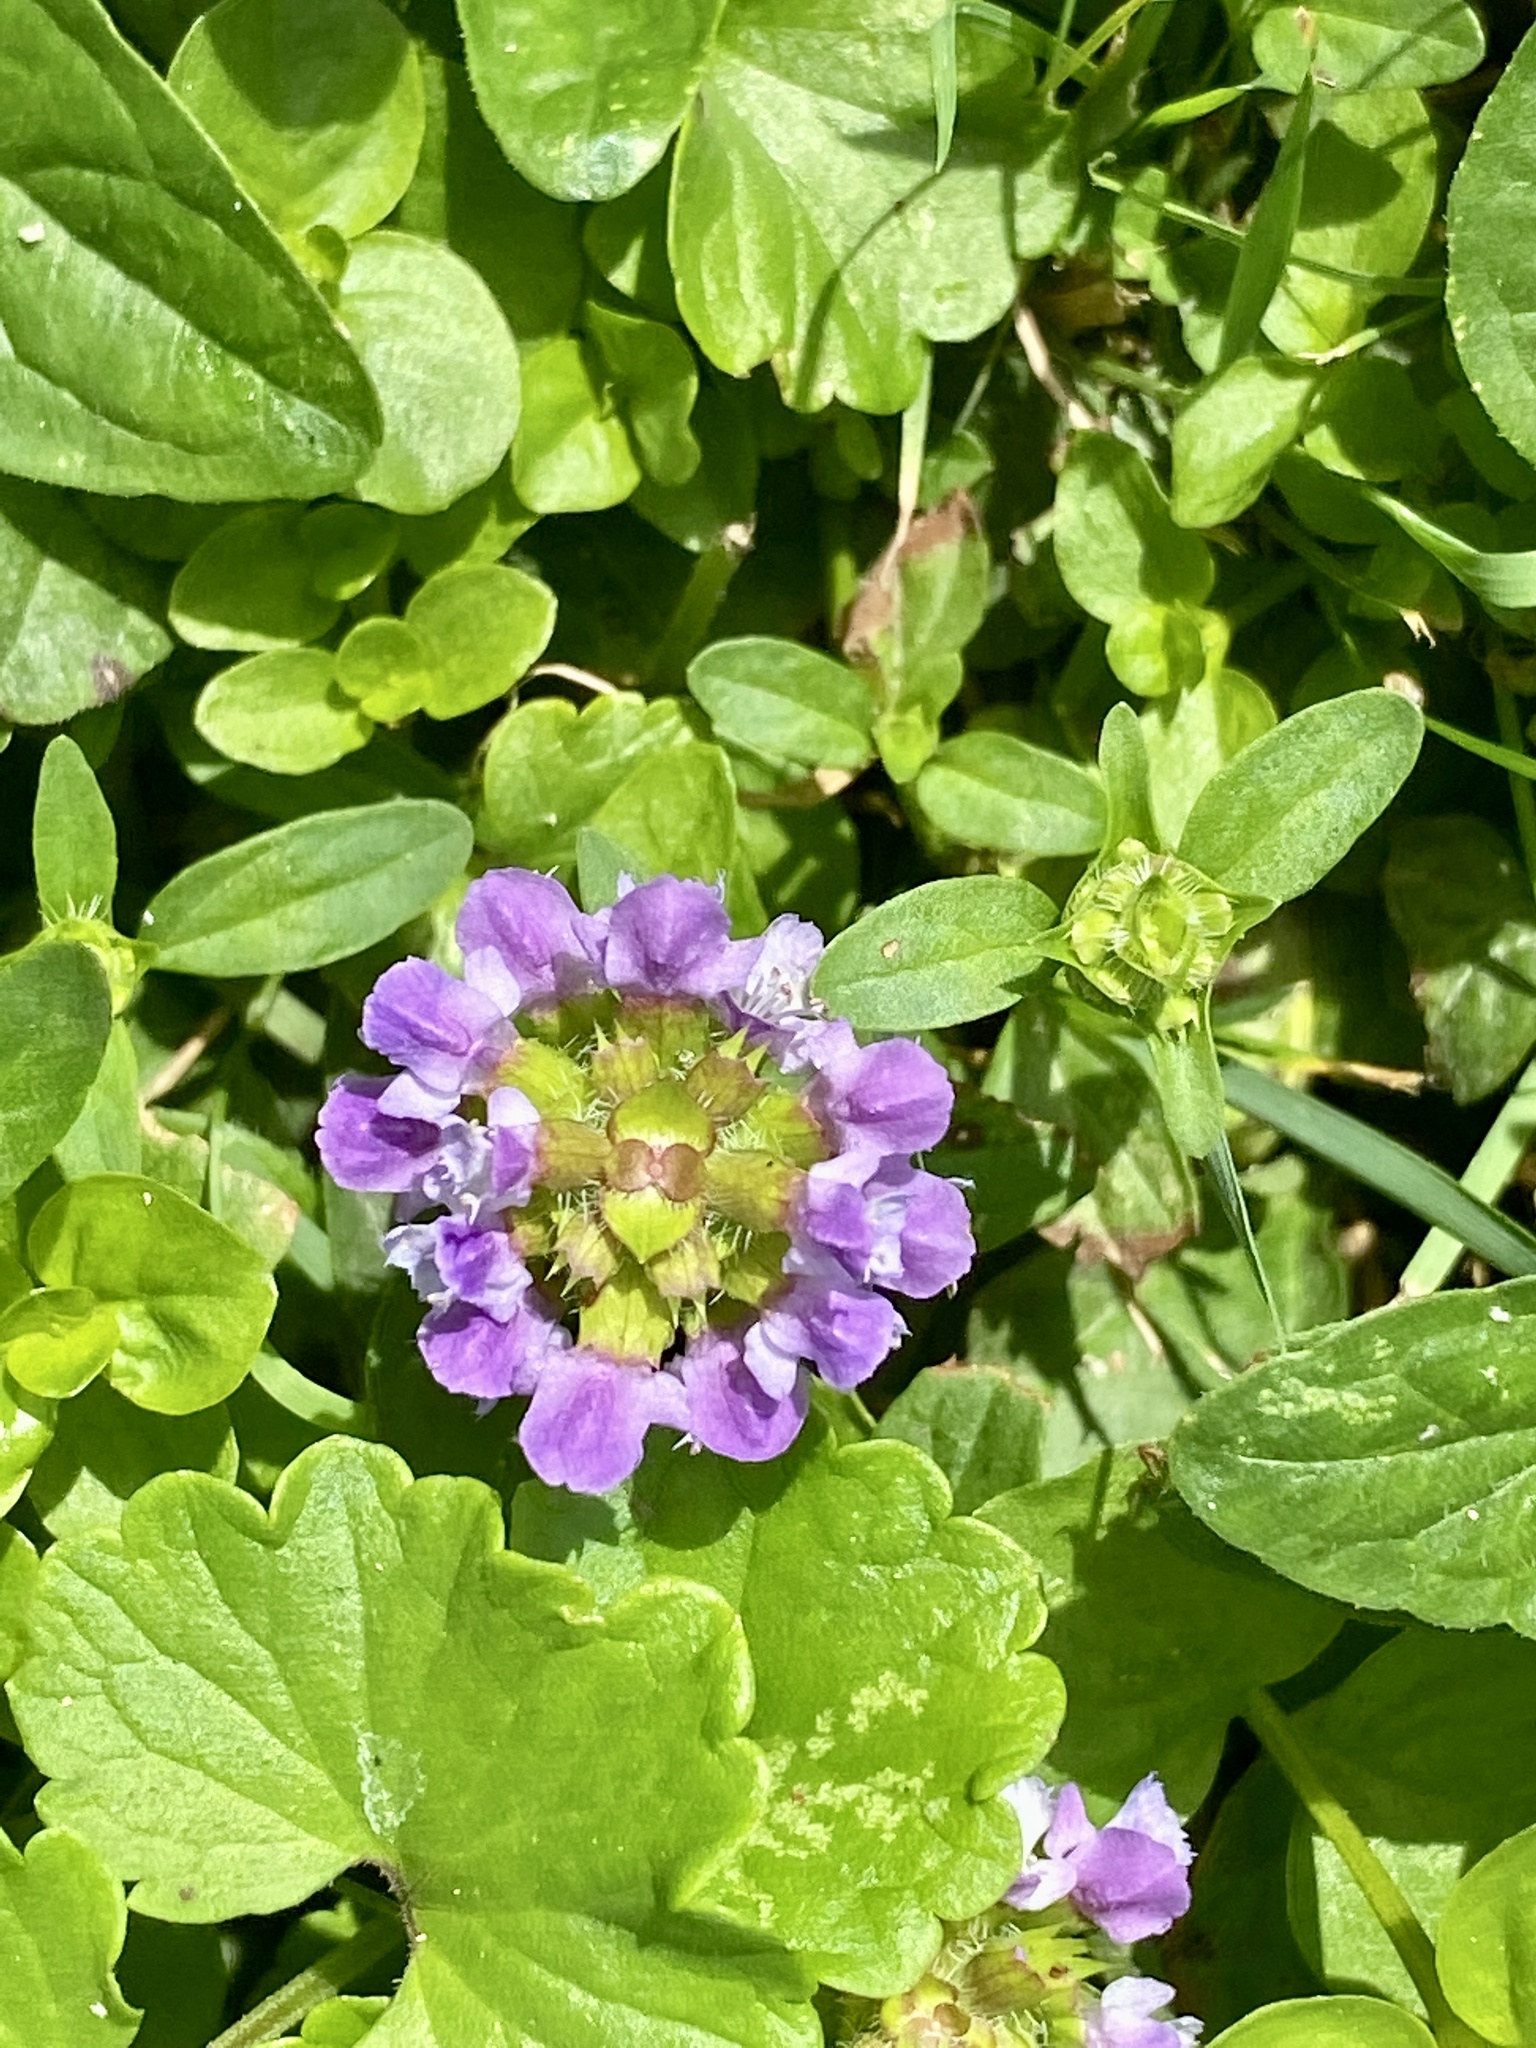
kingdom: Plantae
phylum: Tracheophyta
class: Magnoliopsida
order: Lamiales
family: Lamiaceae
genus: Prunella
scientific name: Prunella vulgaris
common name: Heal-all
